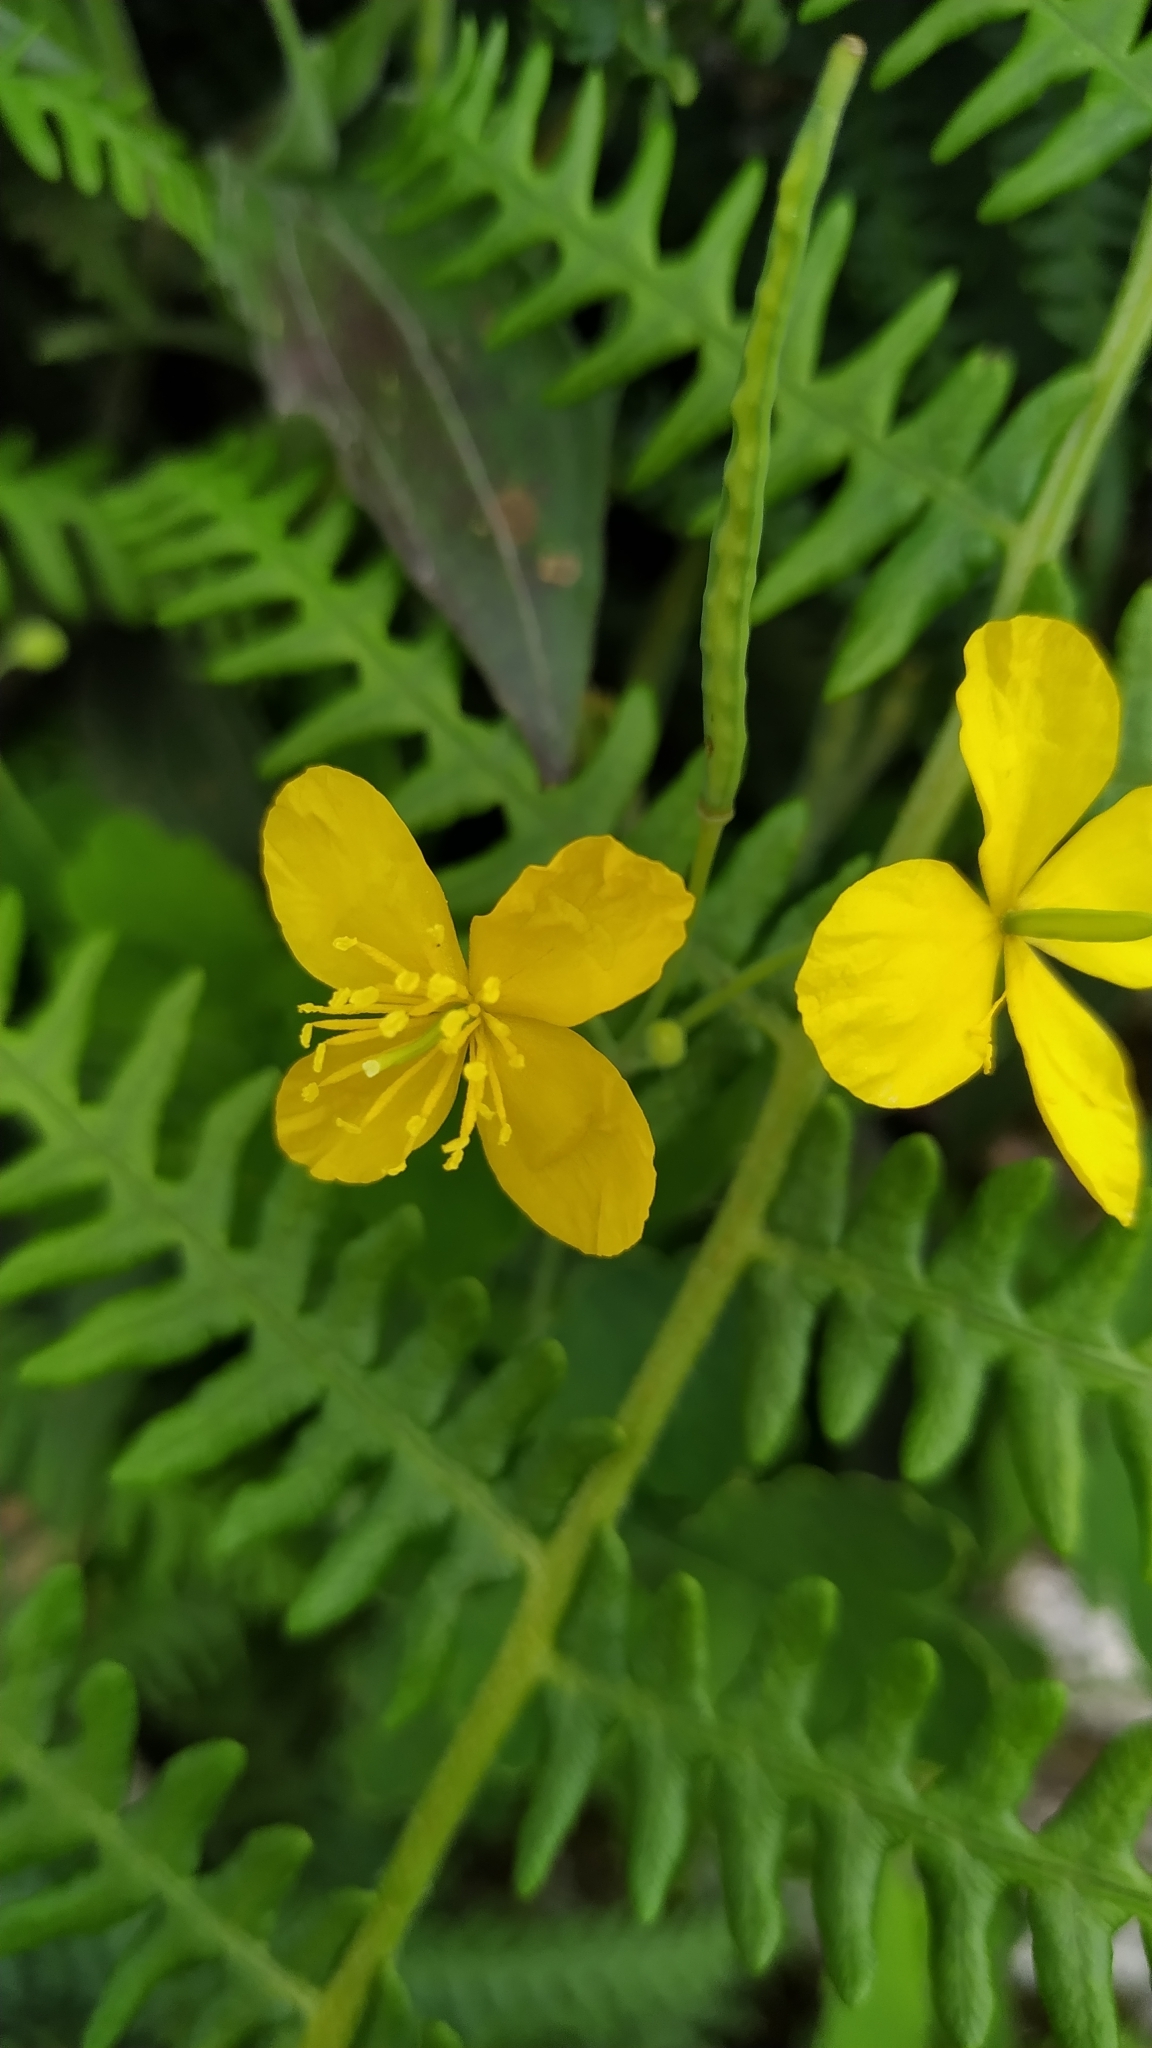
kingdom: Plantae
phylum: Tracheophyta
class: Magnoliopsida
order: Ranunculales
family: Papaveraceae
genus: Chelidonium
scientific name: Chelidonium majus
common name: Greater celandine
